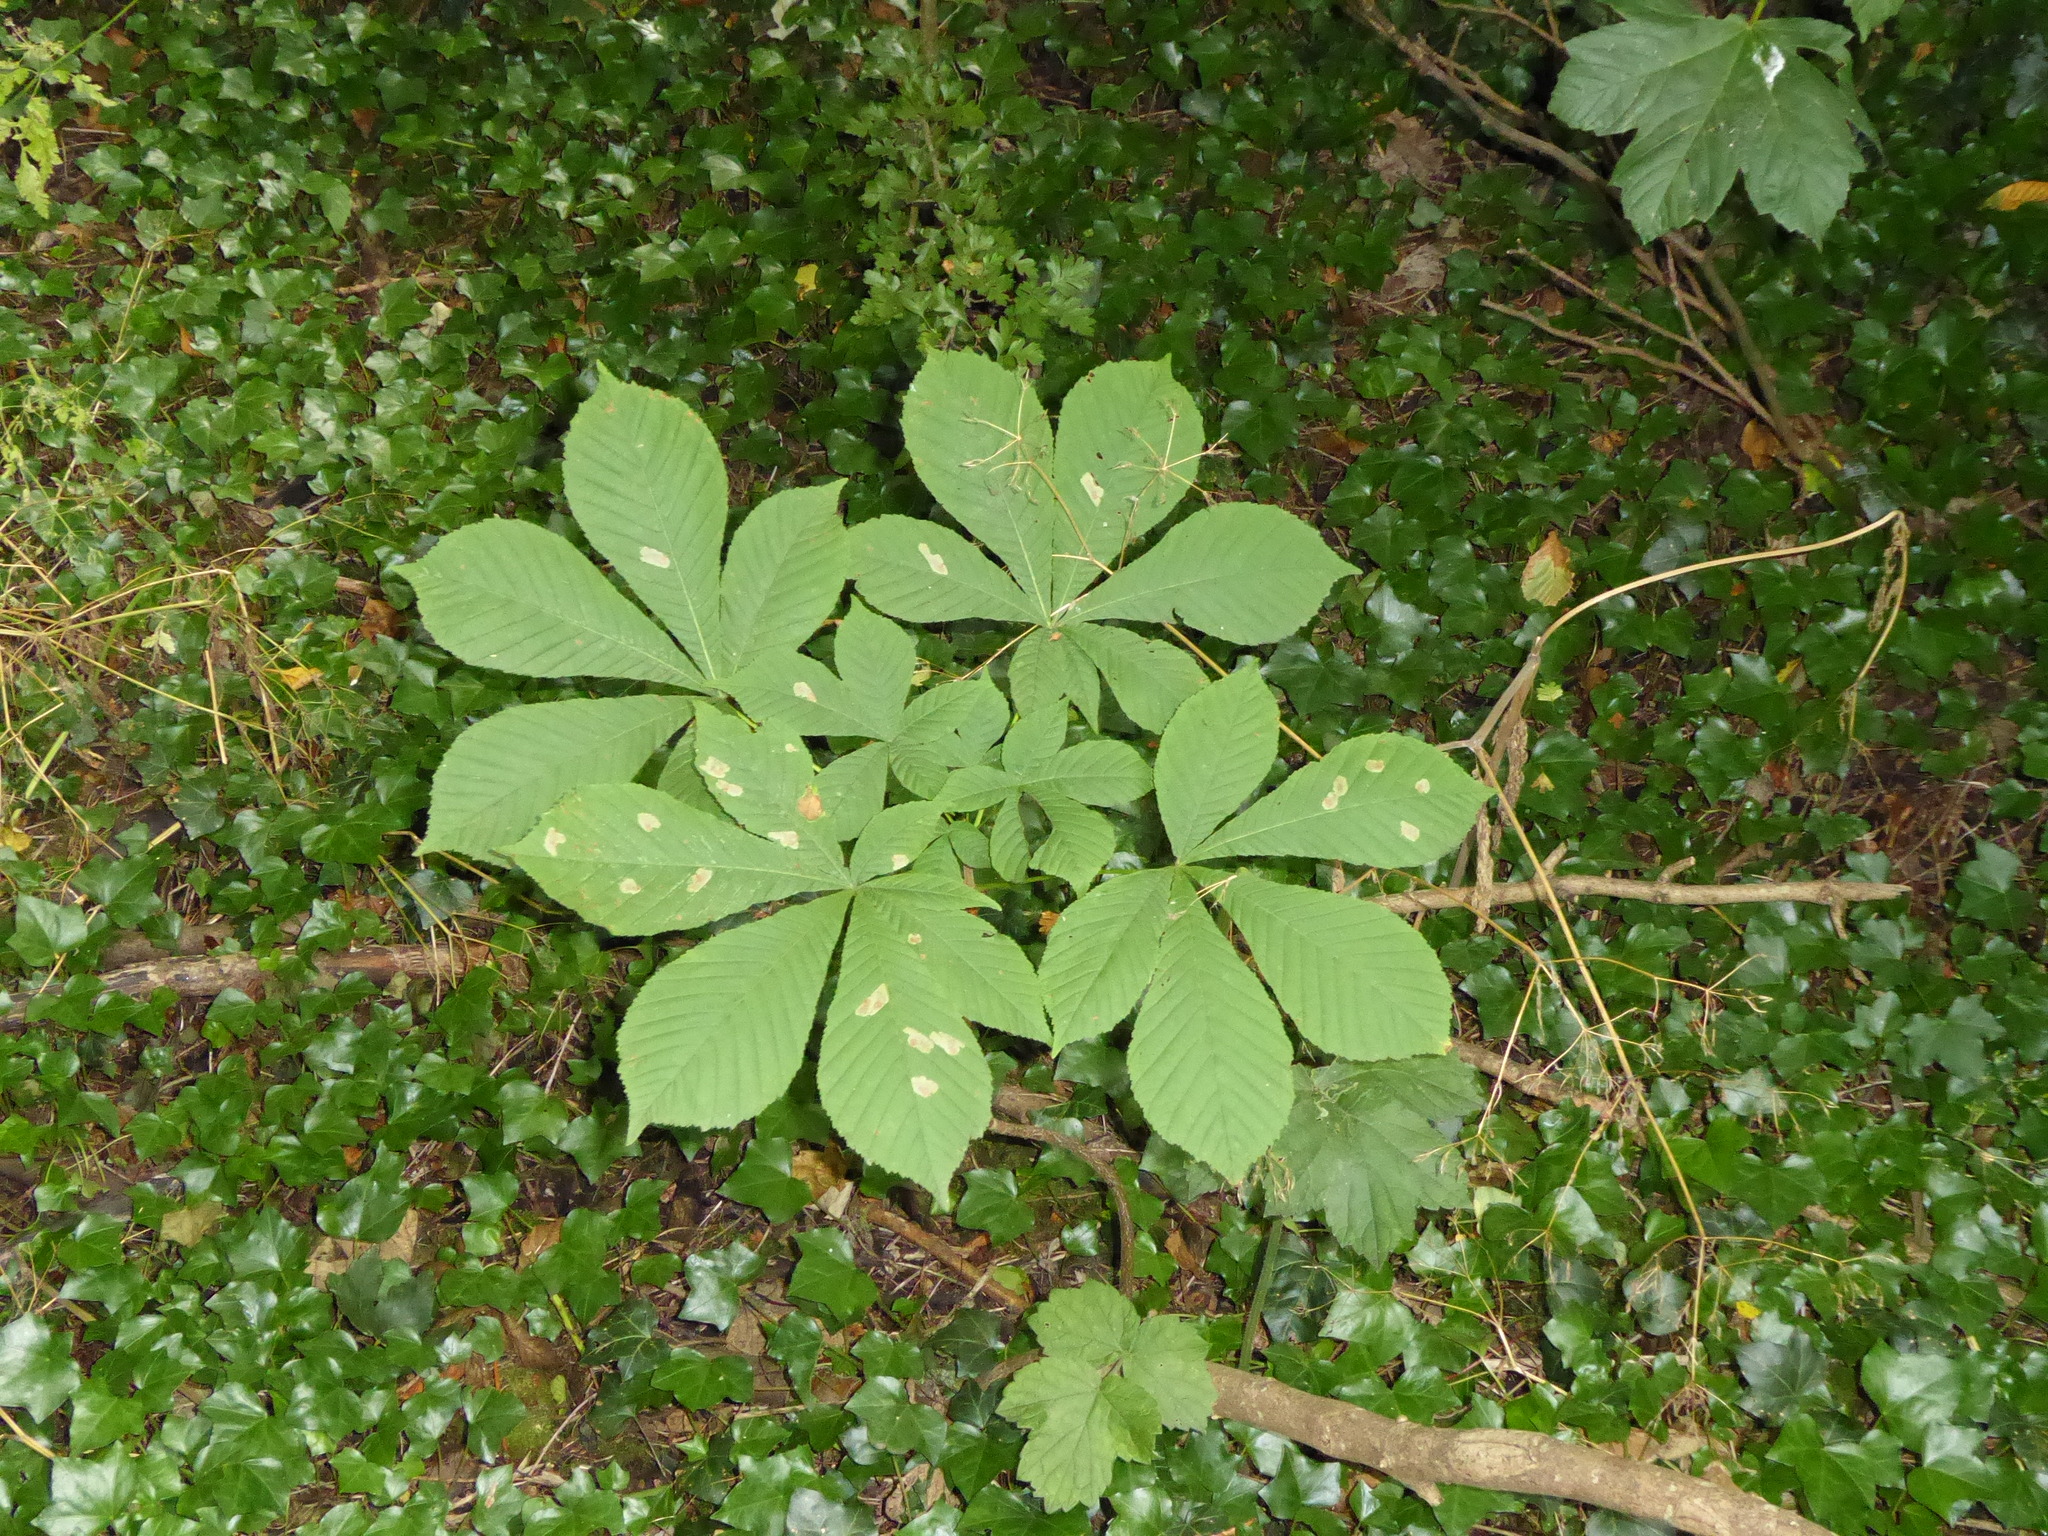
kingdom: Animalia
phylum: Arthropoda
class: Insecta
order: Lepidoptera
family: Gracillariidae
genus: Cameraria
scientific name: Cameraria ohridella
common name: Horse-chestnut leaf-miner
